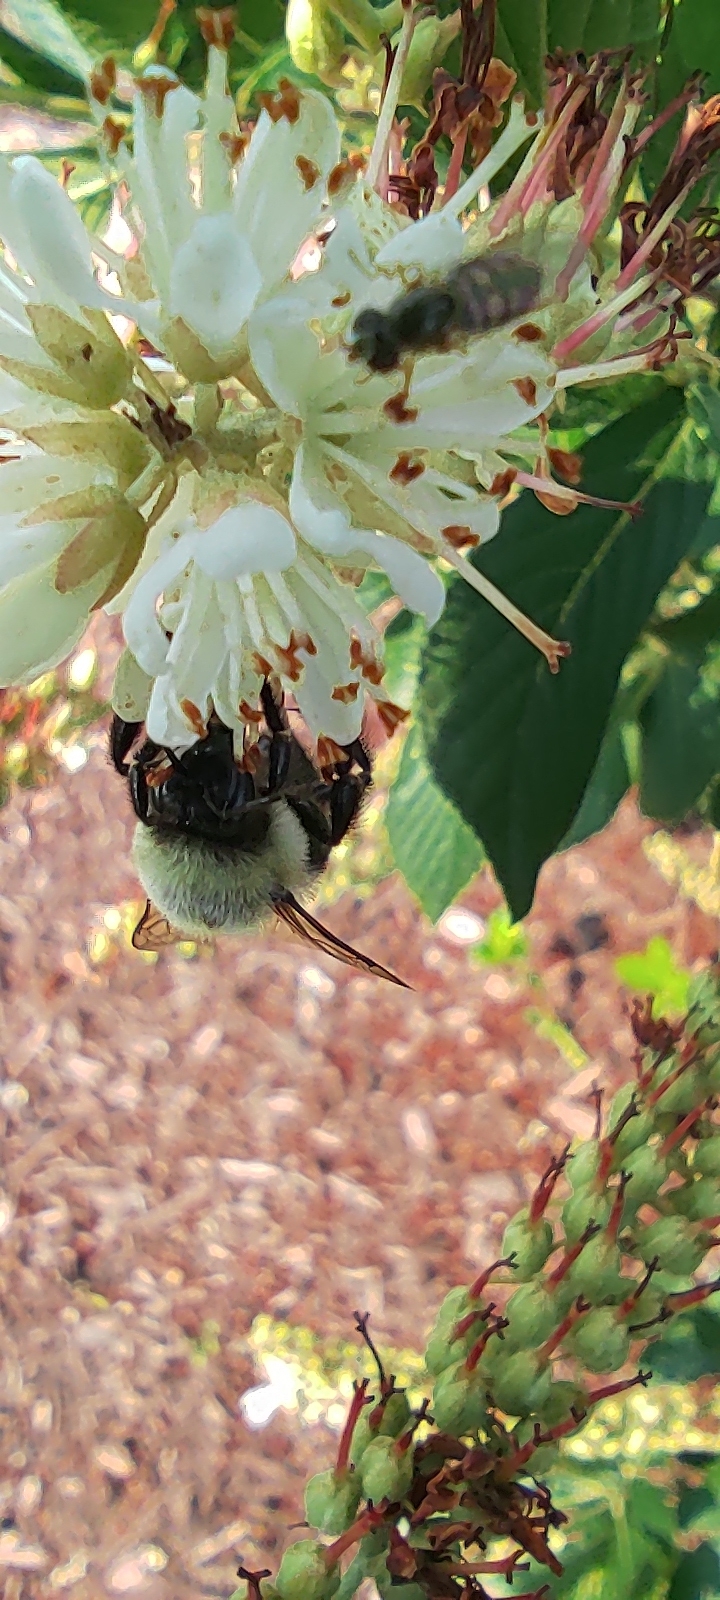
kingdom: Animalia
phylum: Arthropoda
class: Insecta
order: Hymenoptera
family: Apidae
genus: Bombus
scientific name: Bombus impatiens
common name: Common eastern bumble bee
